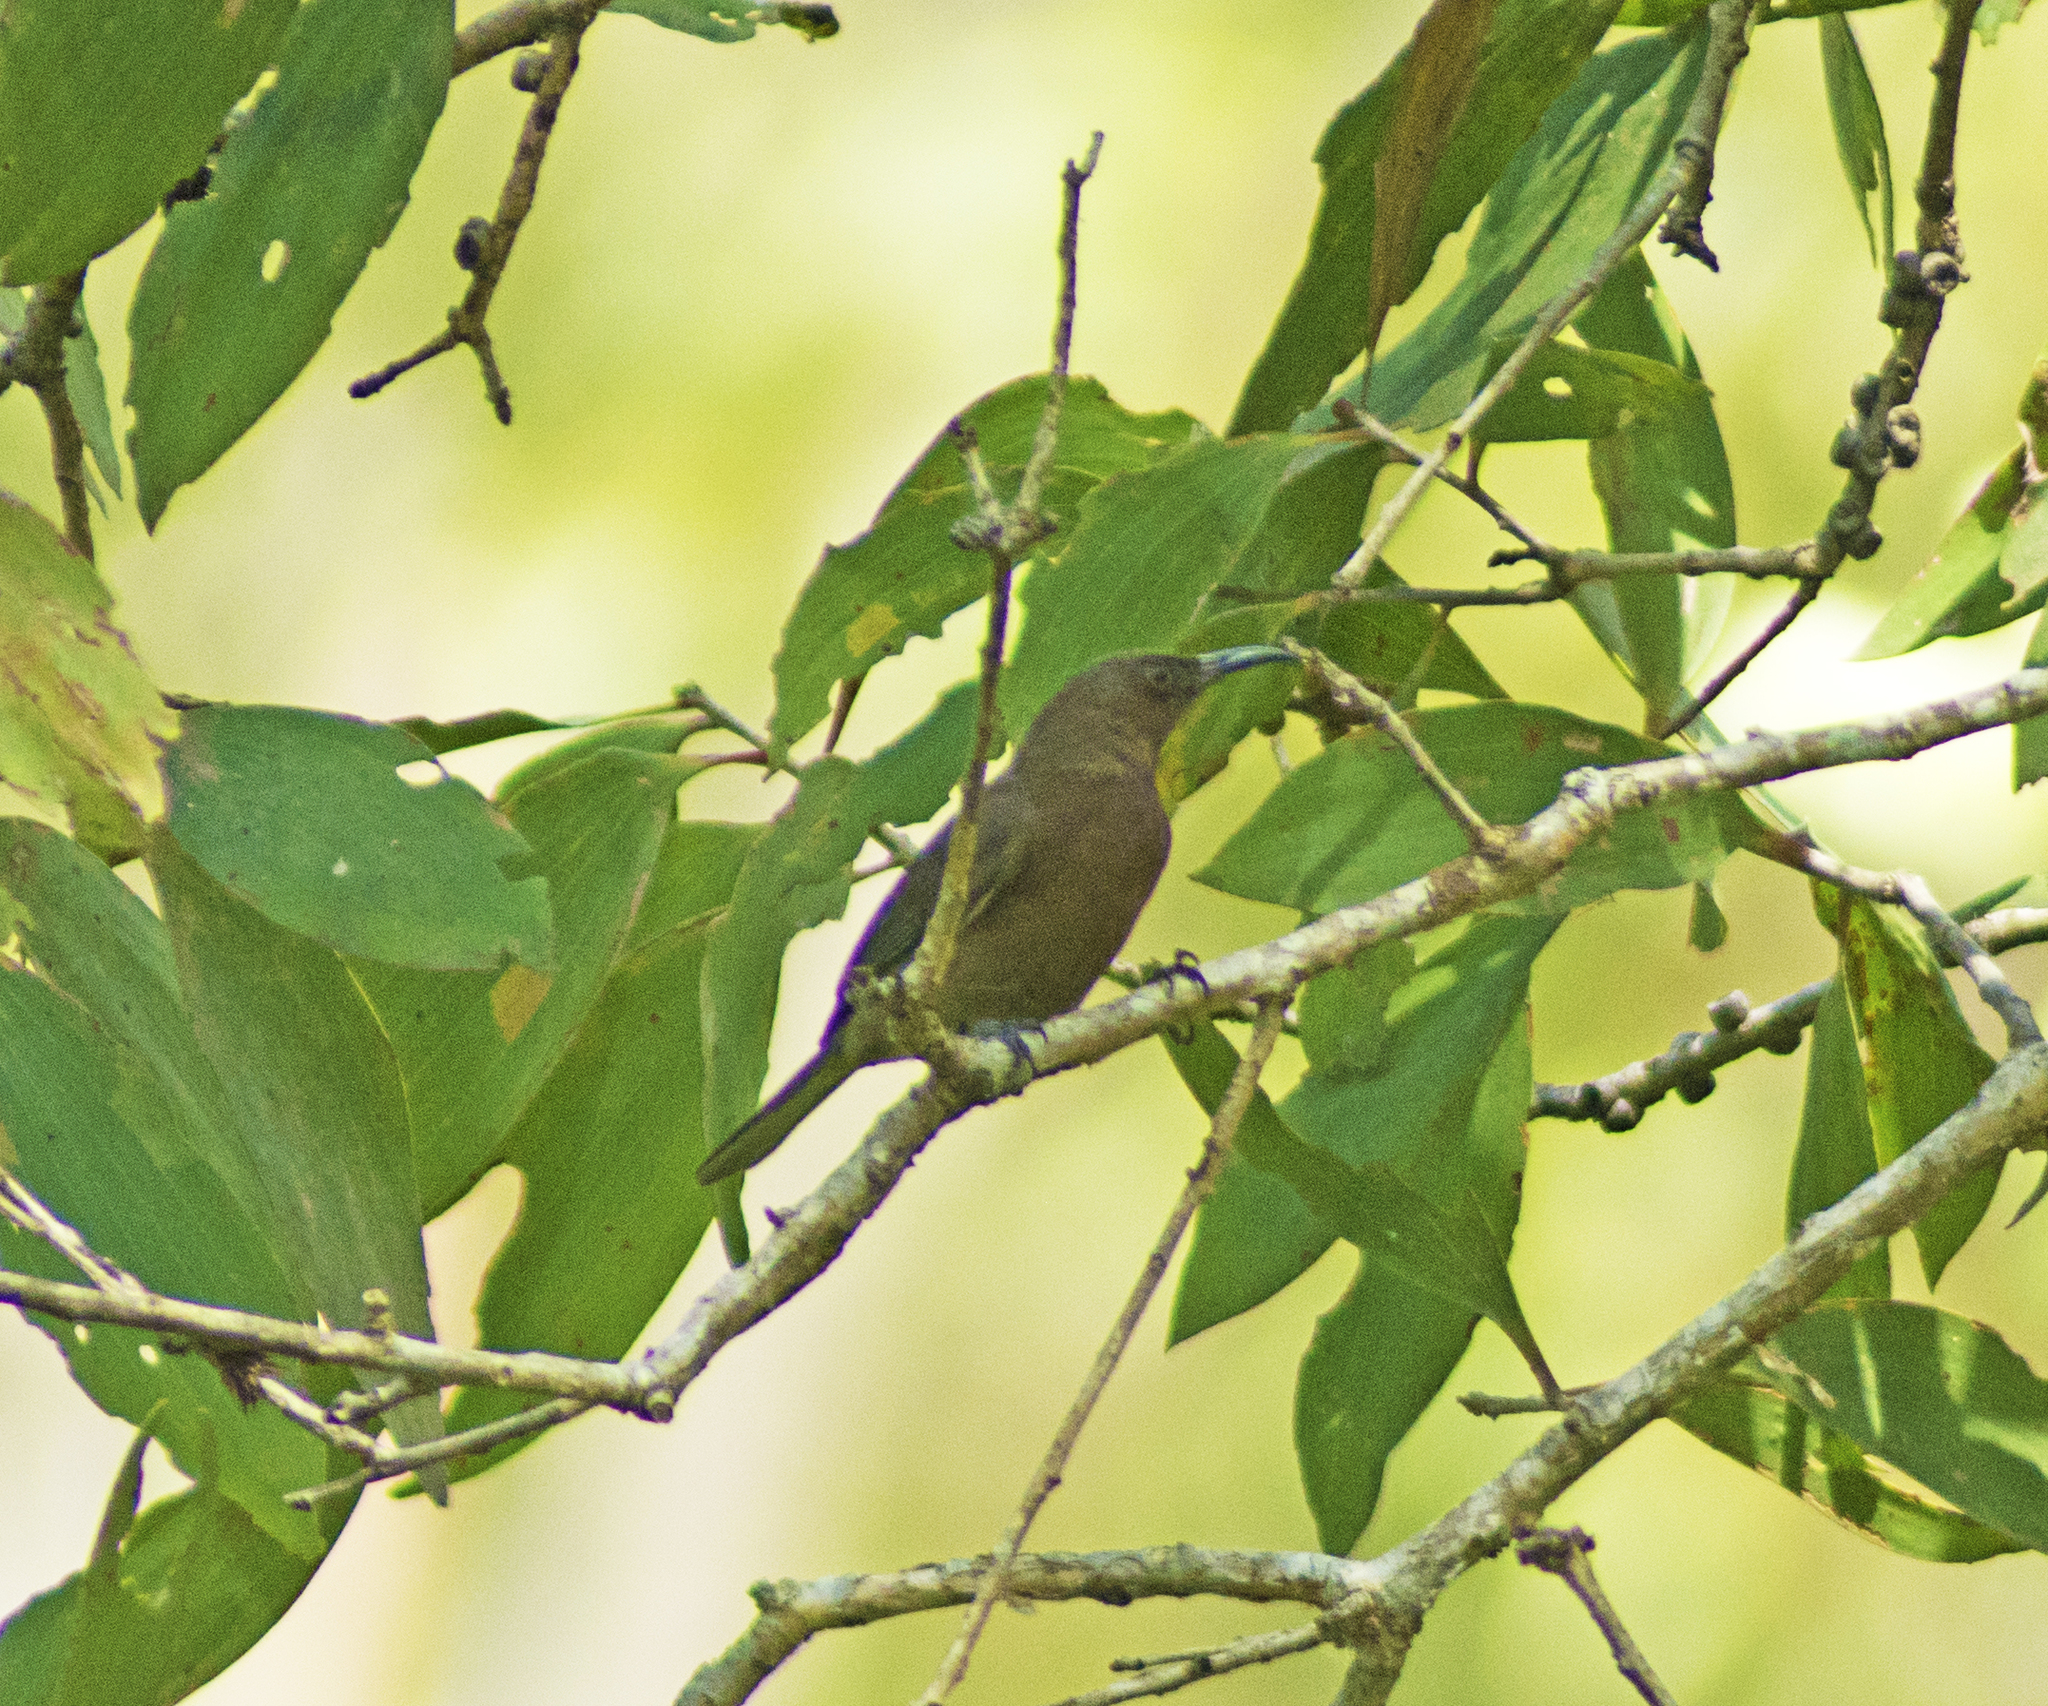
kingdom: Animalia
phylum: Chordata
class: Aves
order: Passeriformes
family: Meliphagidae
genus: Myzomela
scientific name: Myzomela obscura
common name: Dusky myzomela
